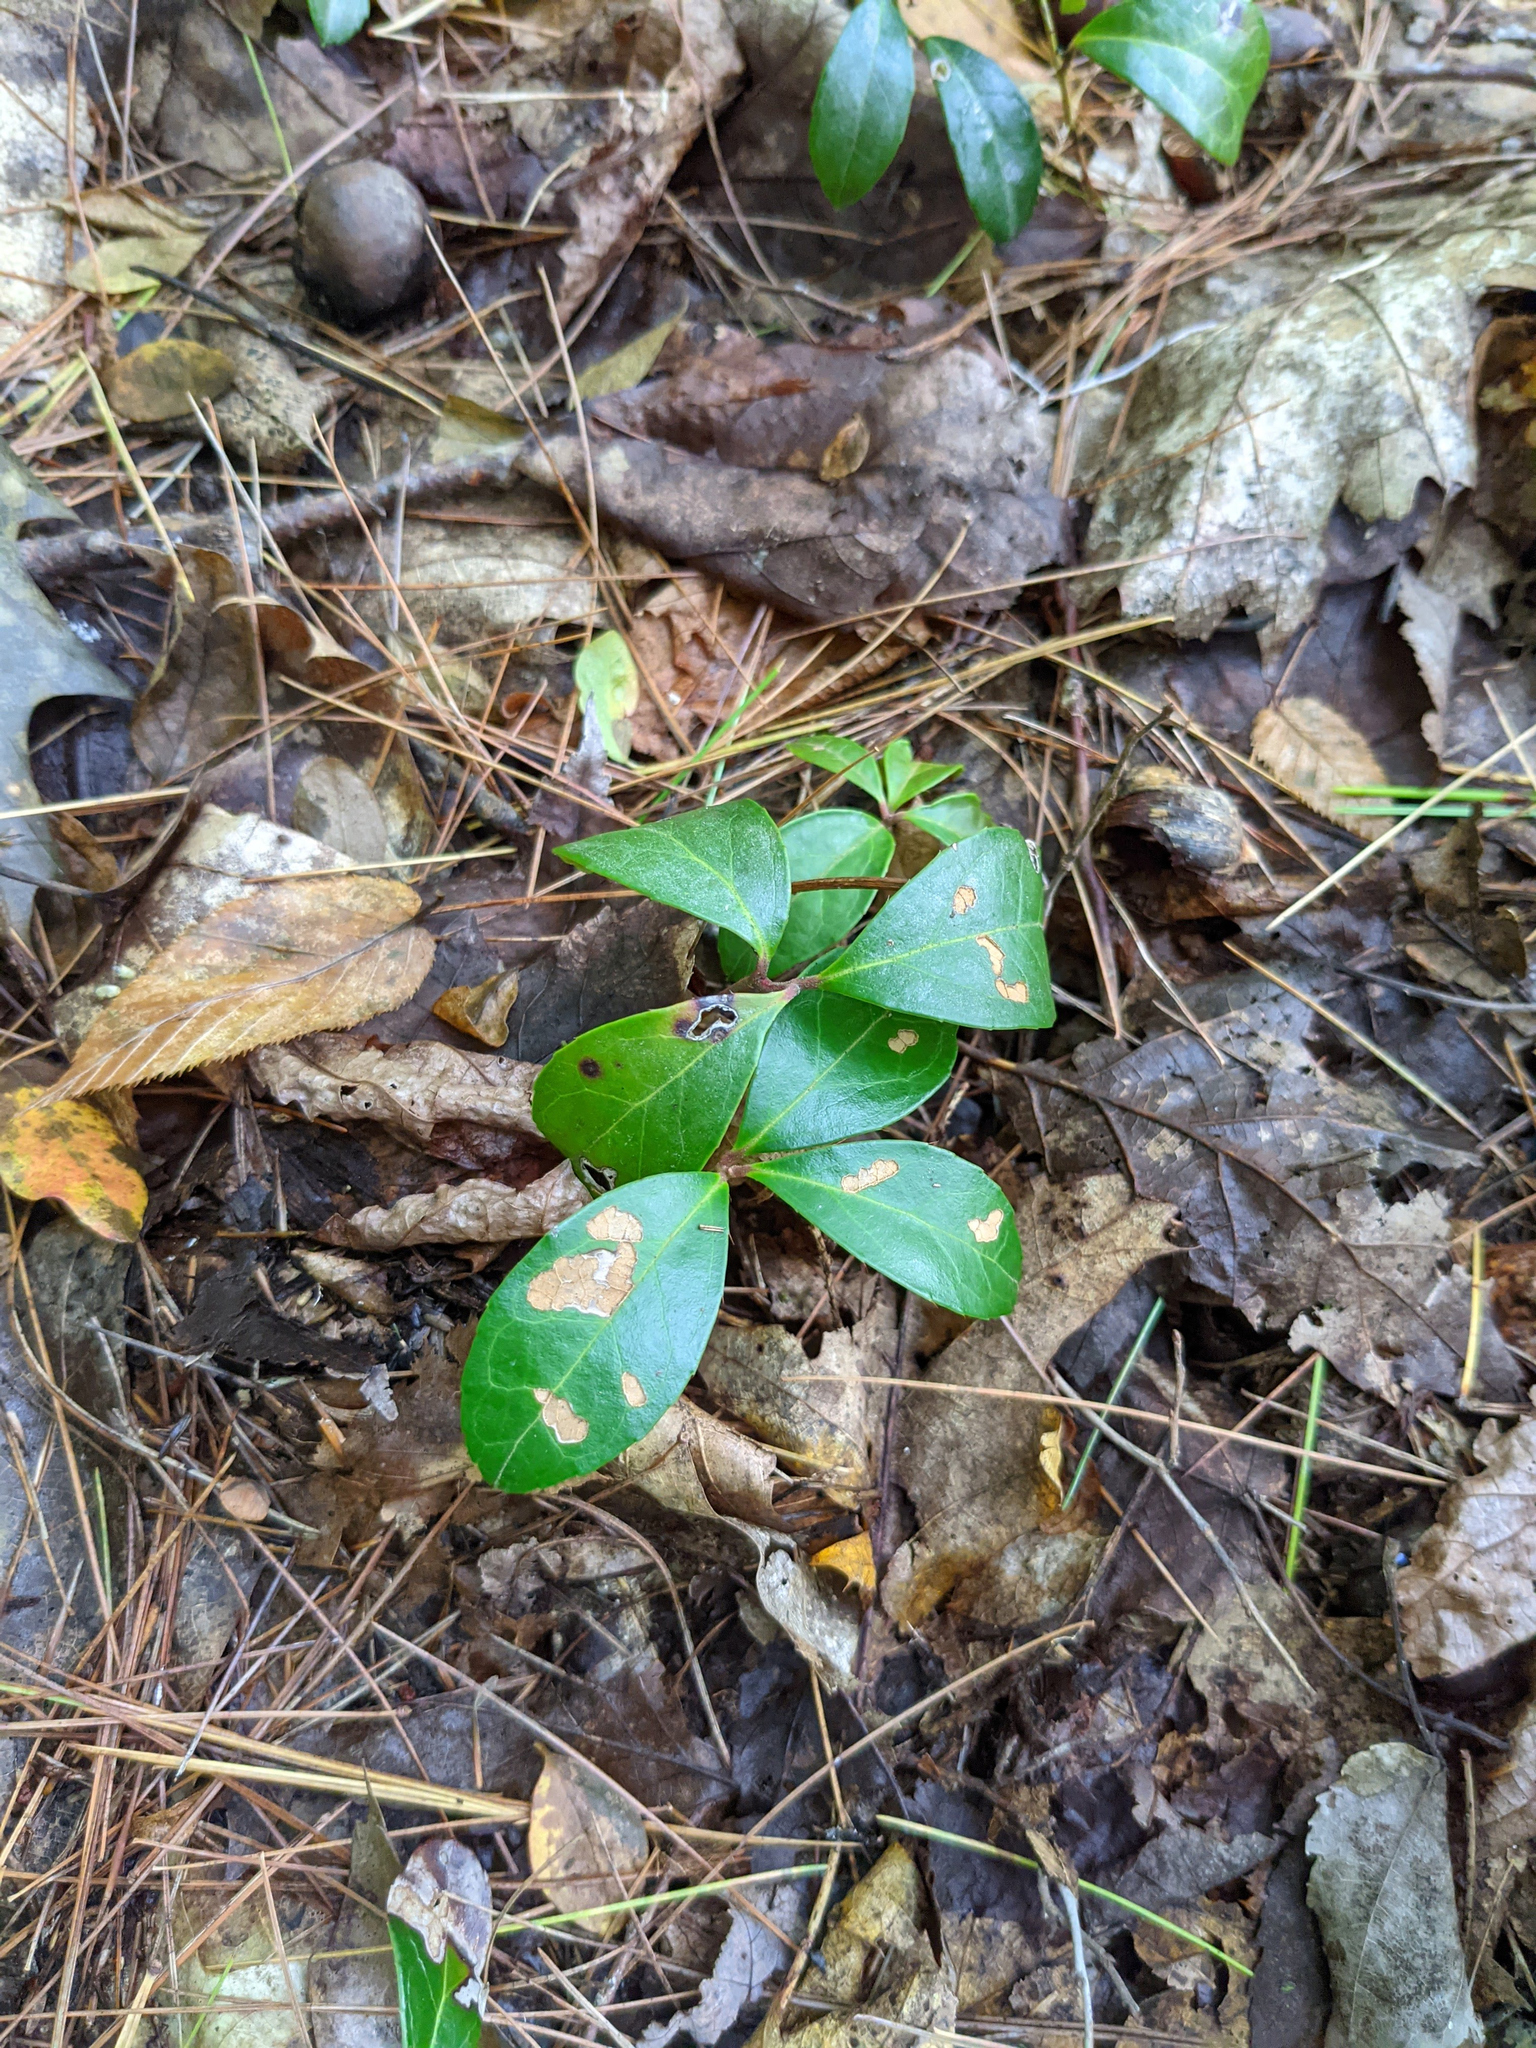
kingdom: Plantae
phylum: Tracheophyta
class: Magnoliopsida
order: Ericales
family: Ericaceae
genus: Gaultheria
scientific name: Gaultheria procumbens
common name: Checkerberry
